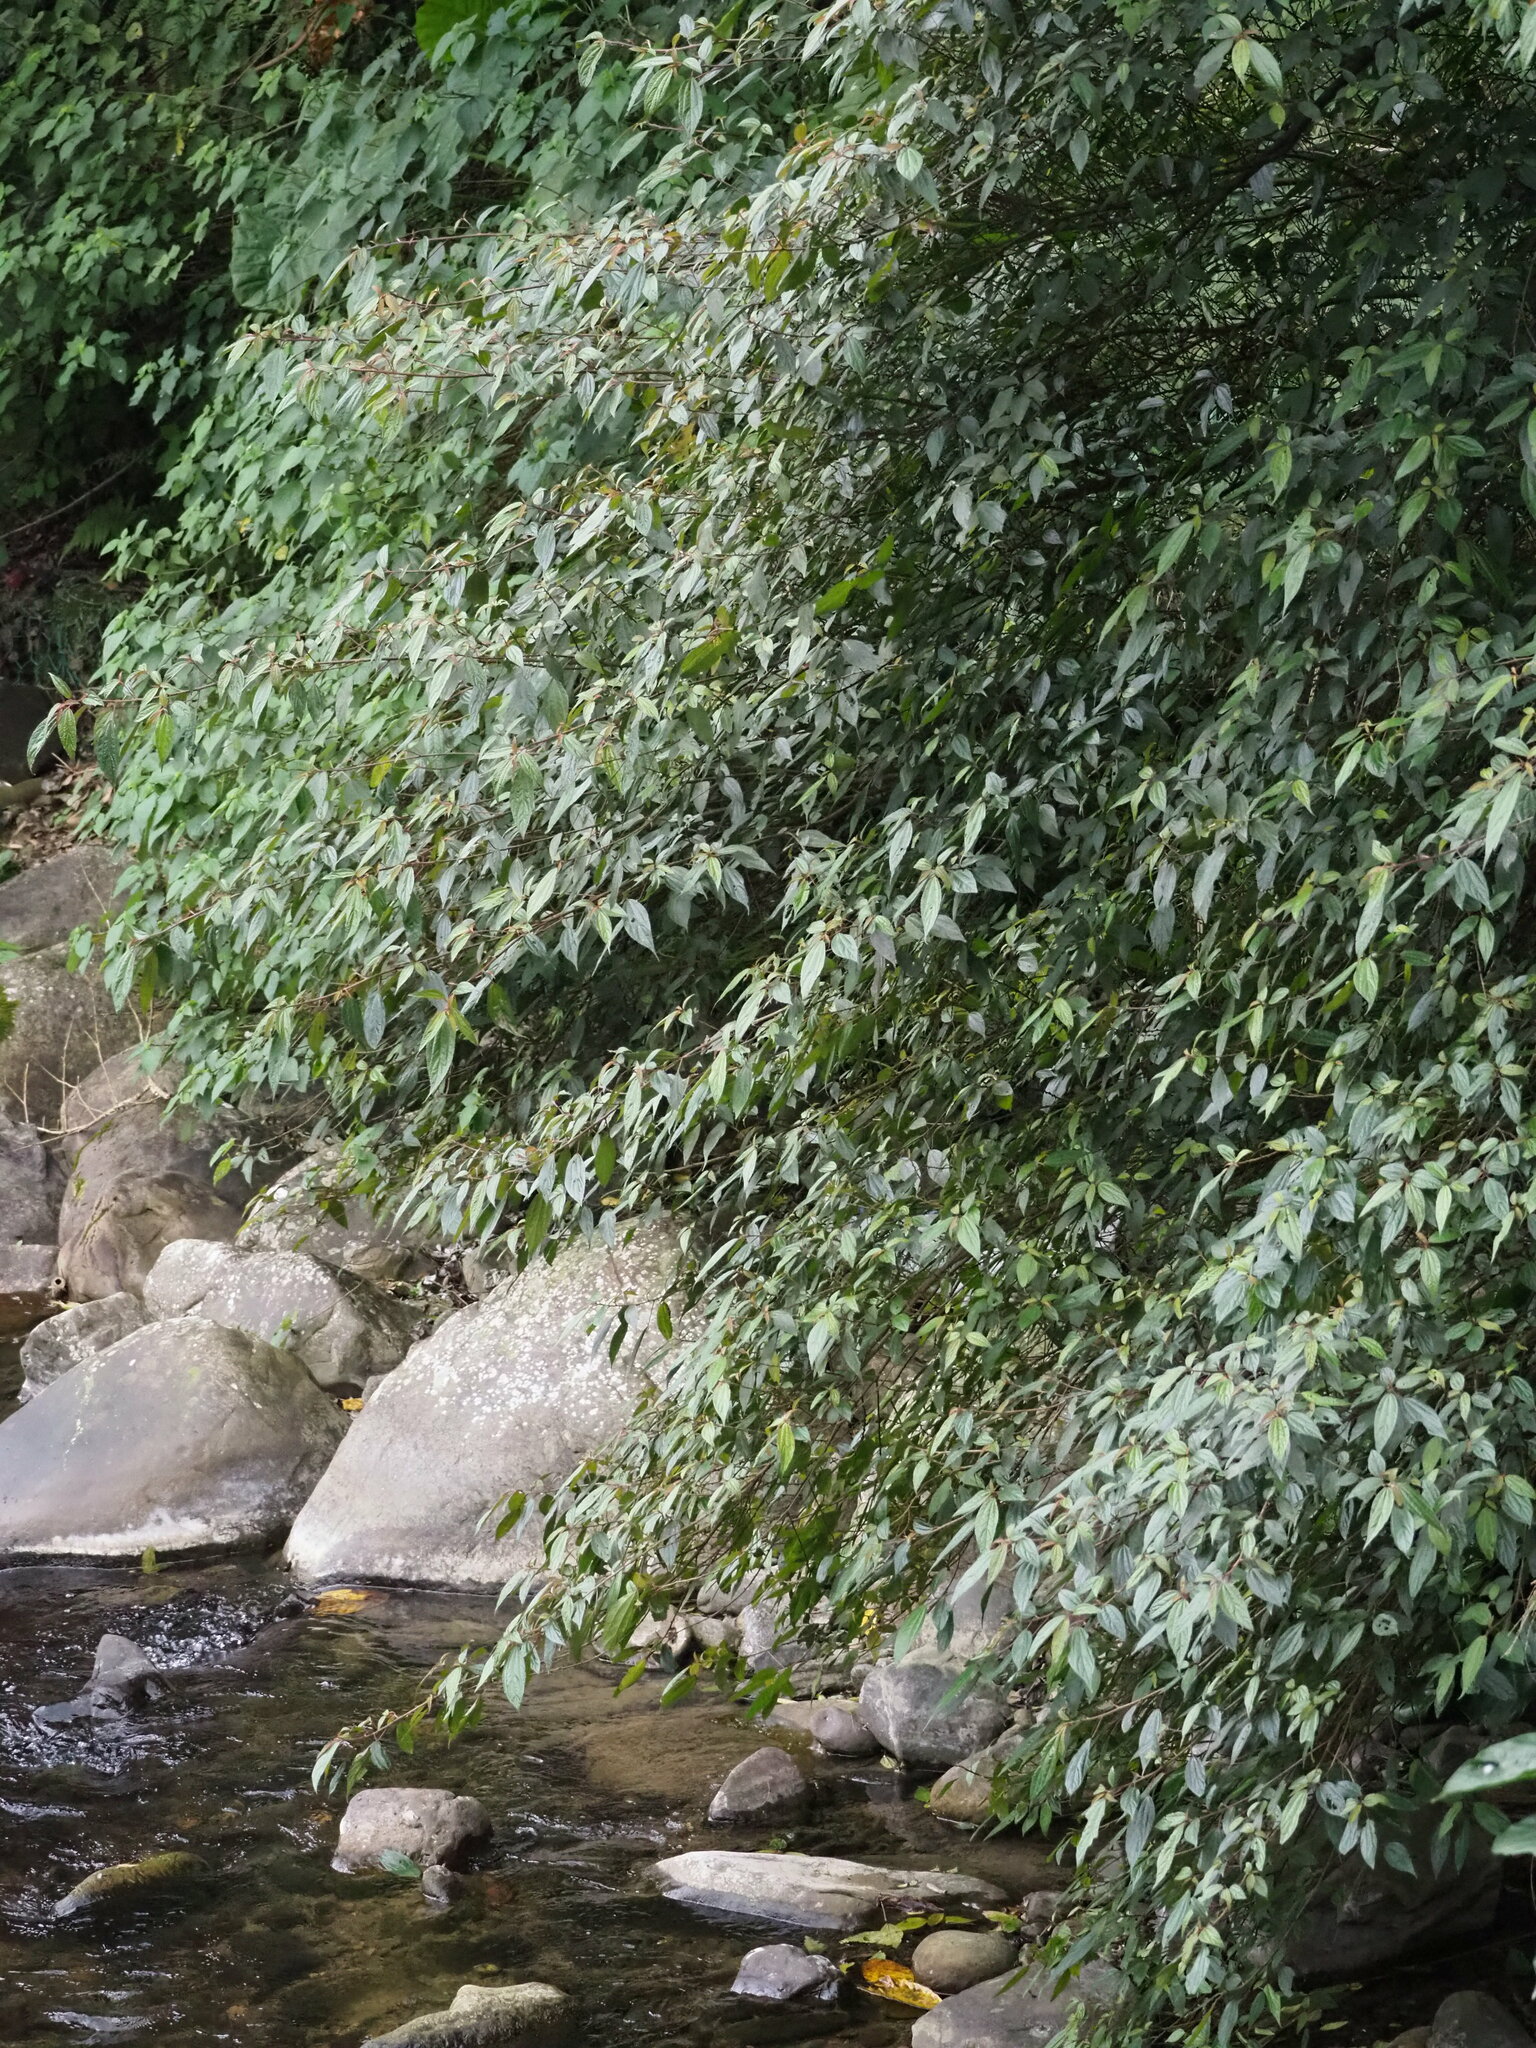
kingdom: Plantae
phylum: Tracheophyta
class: Magnoliopsida
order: Rosales
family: Urticaceae
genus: Oreocnide
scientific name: Oreocnide pedunculata
